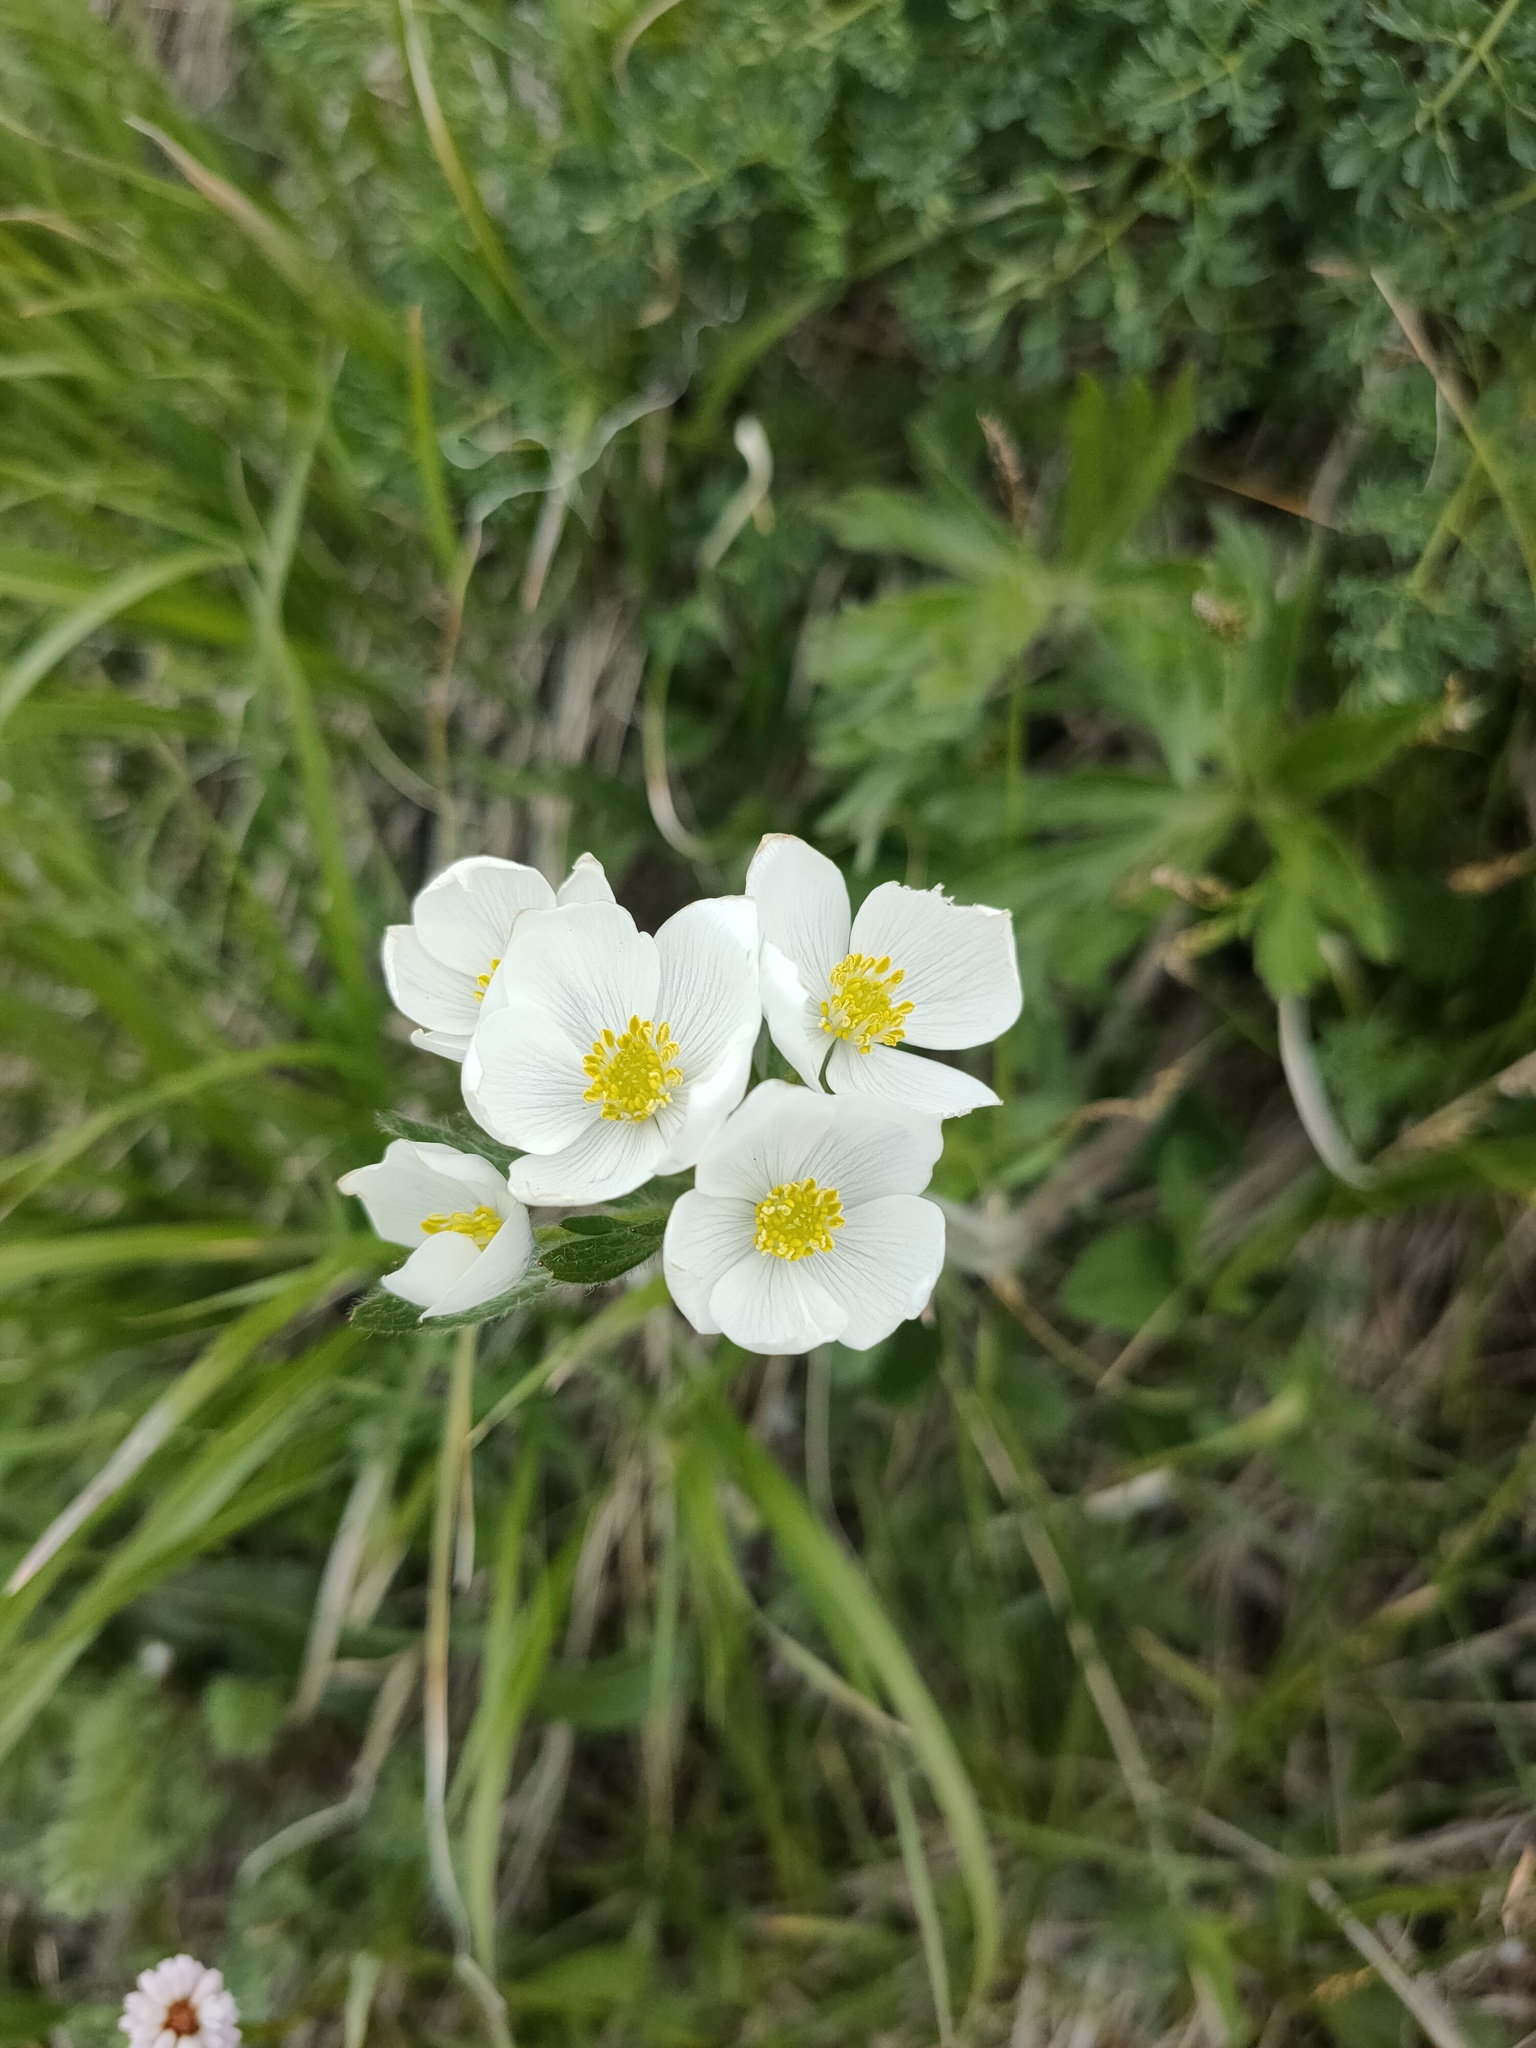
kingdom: Plantae
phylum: Tracheophyta
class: Magnoliopsida
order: Ranunculales
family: Ranunculaceae
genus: Anemonastrum
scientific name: Anemonastrum narcissiflorum
